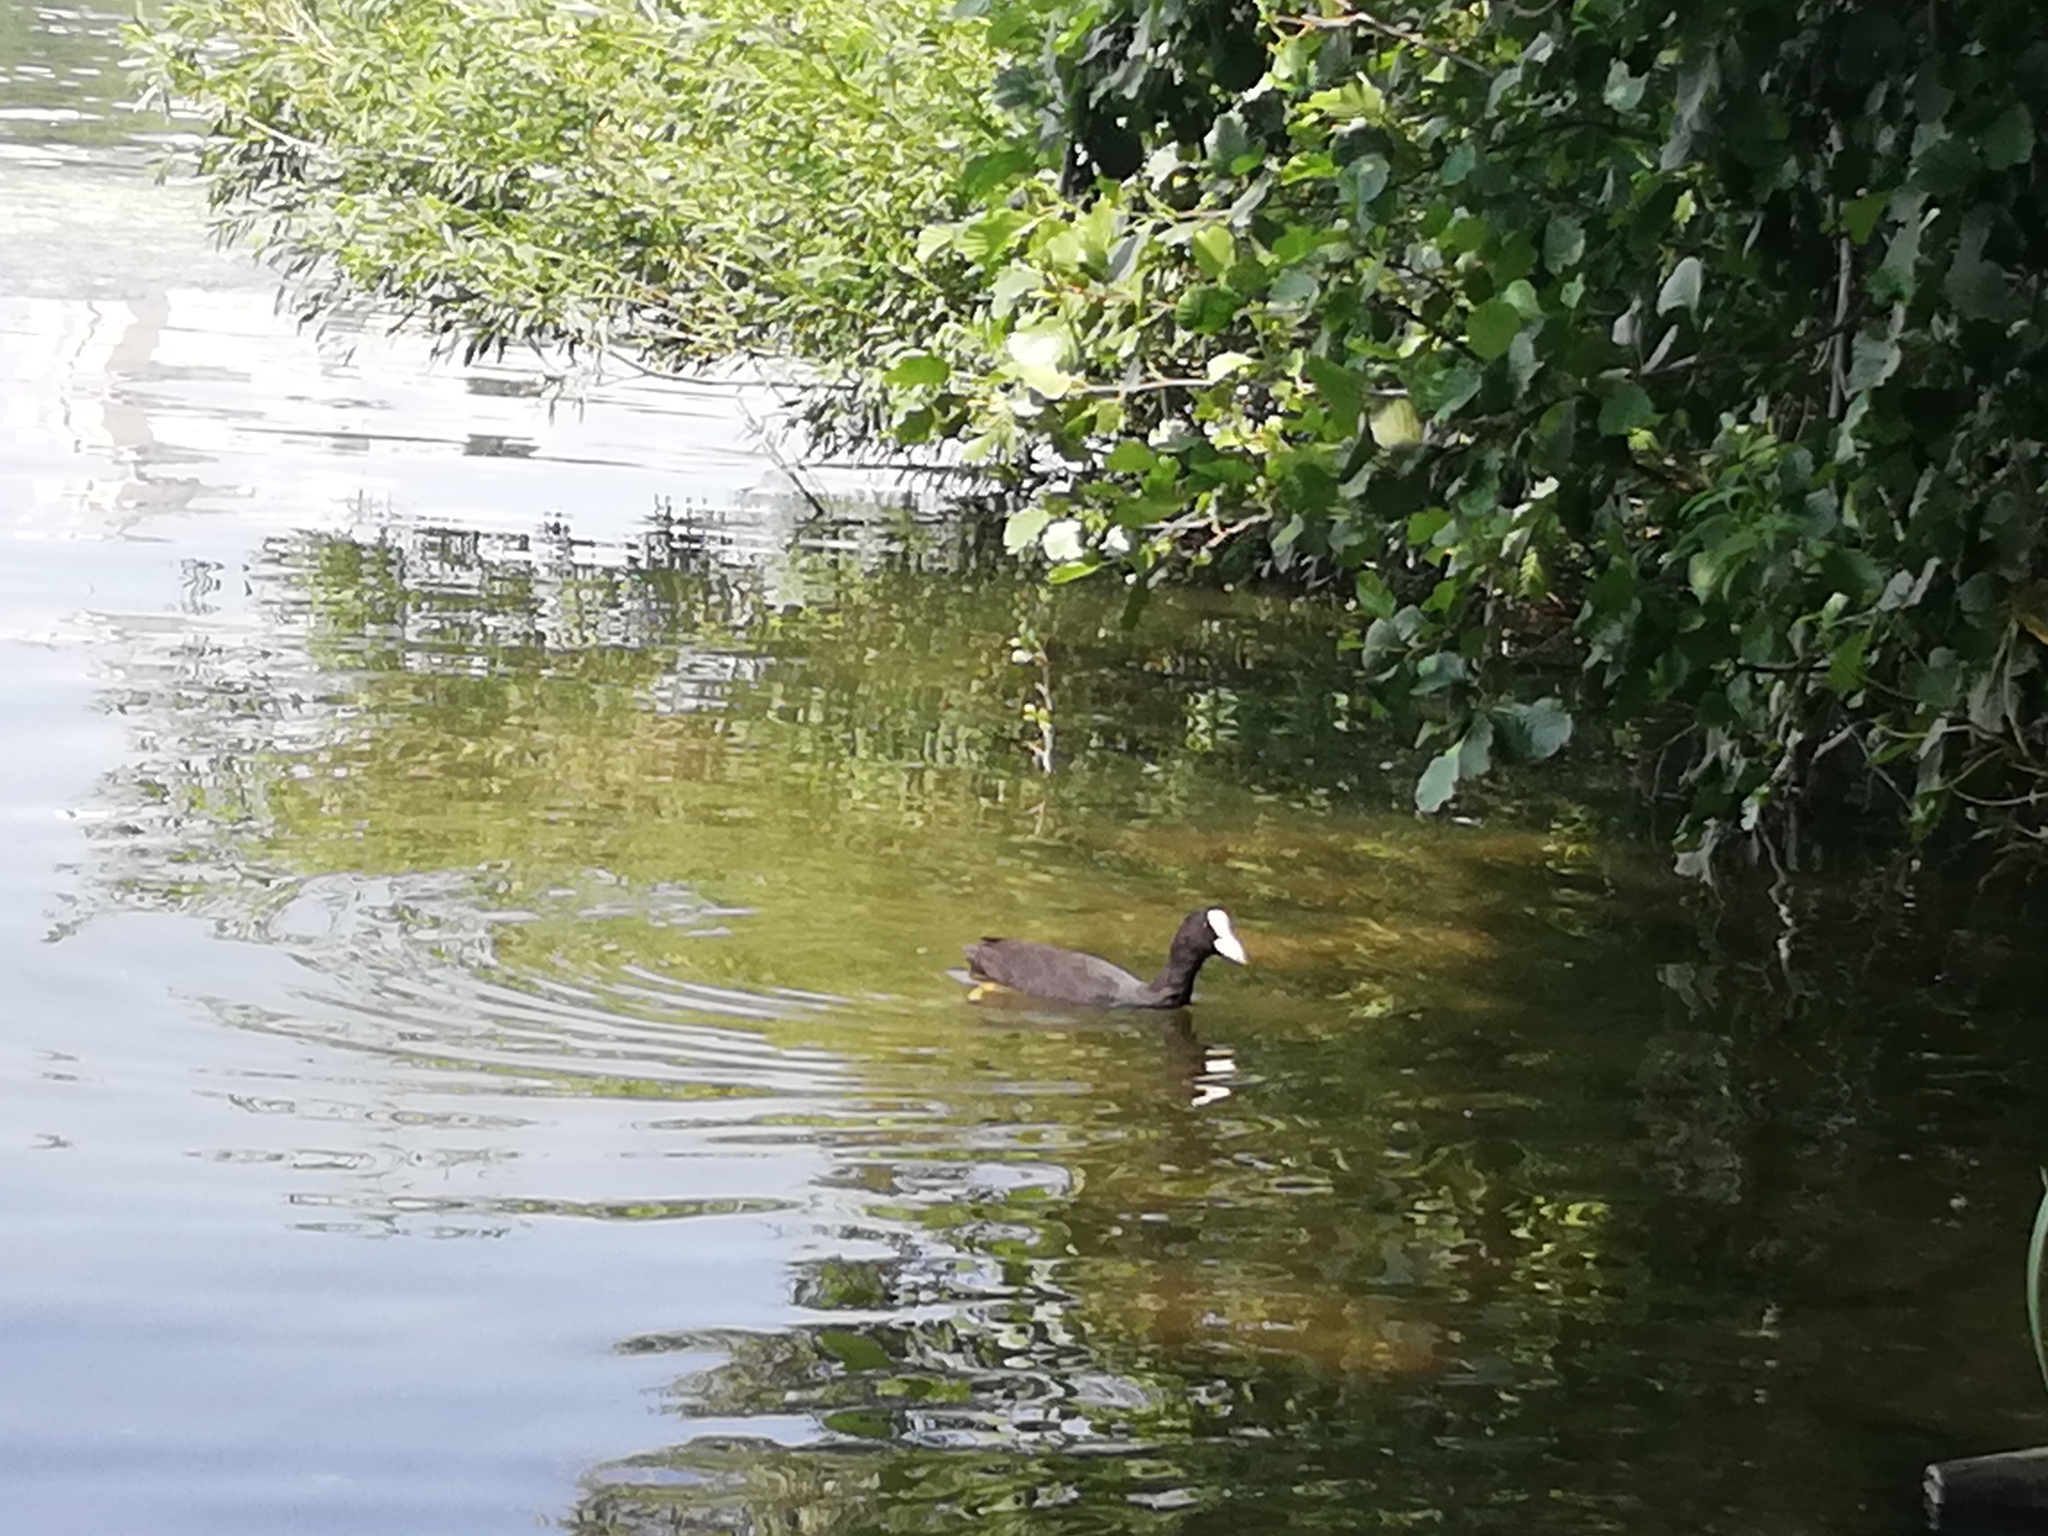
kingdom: Animalia
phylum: Chordata
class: Aves
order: Gruiformes
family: Rallidae
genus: Fulica
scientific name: Fulica atra
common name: Eurasian coot
